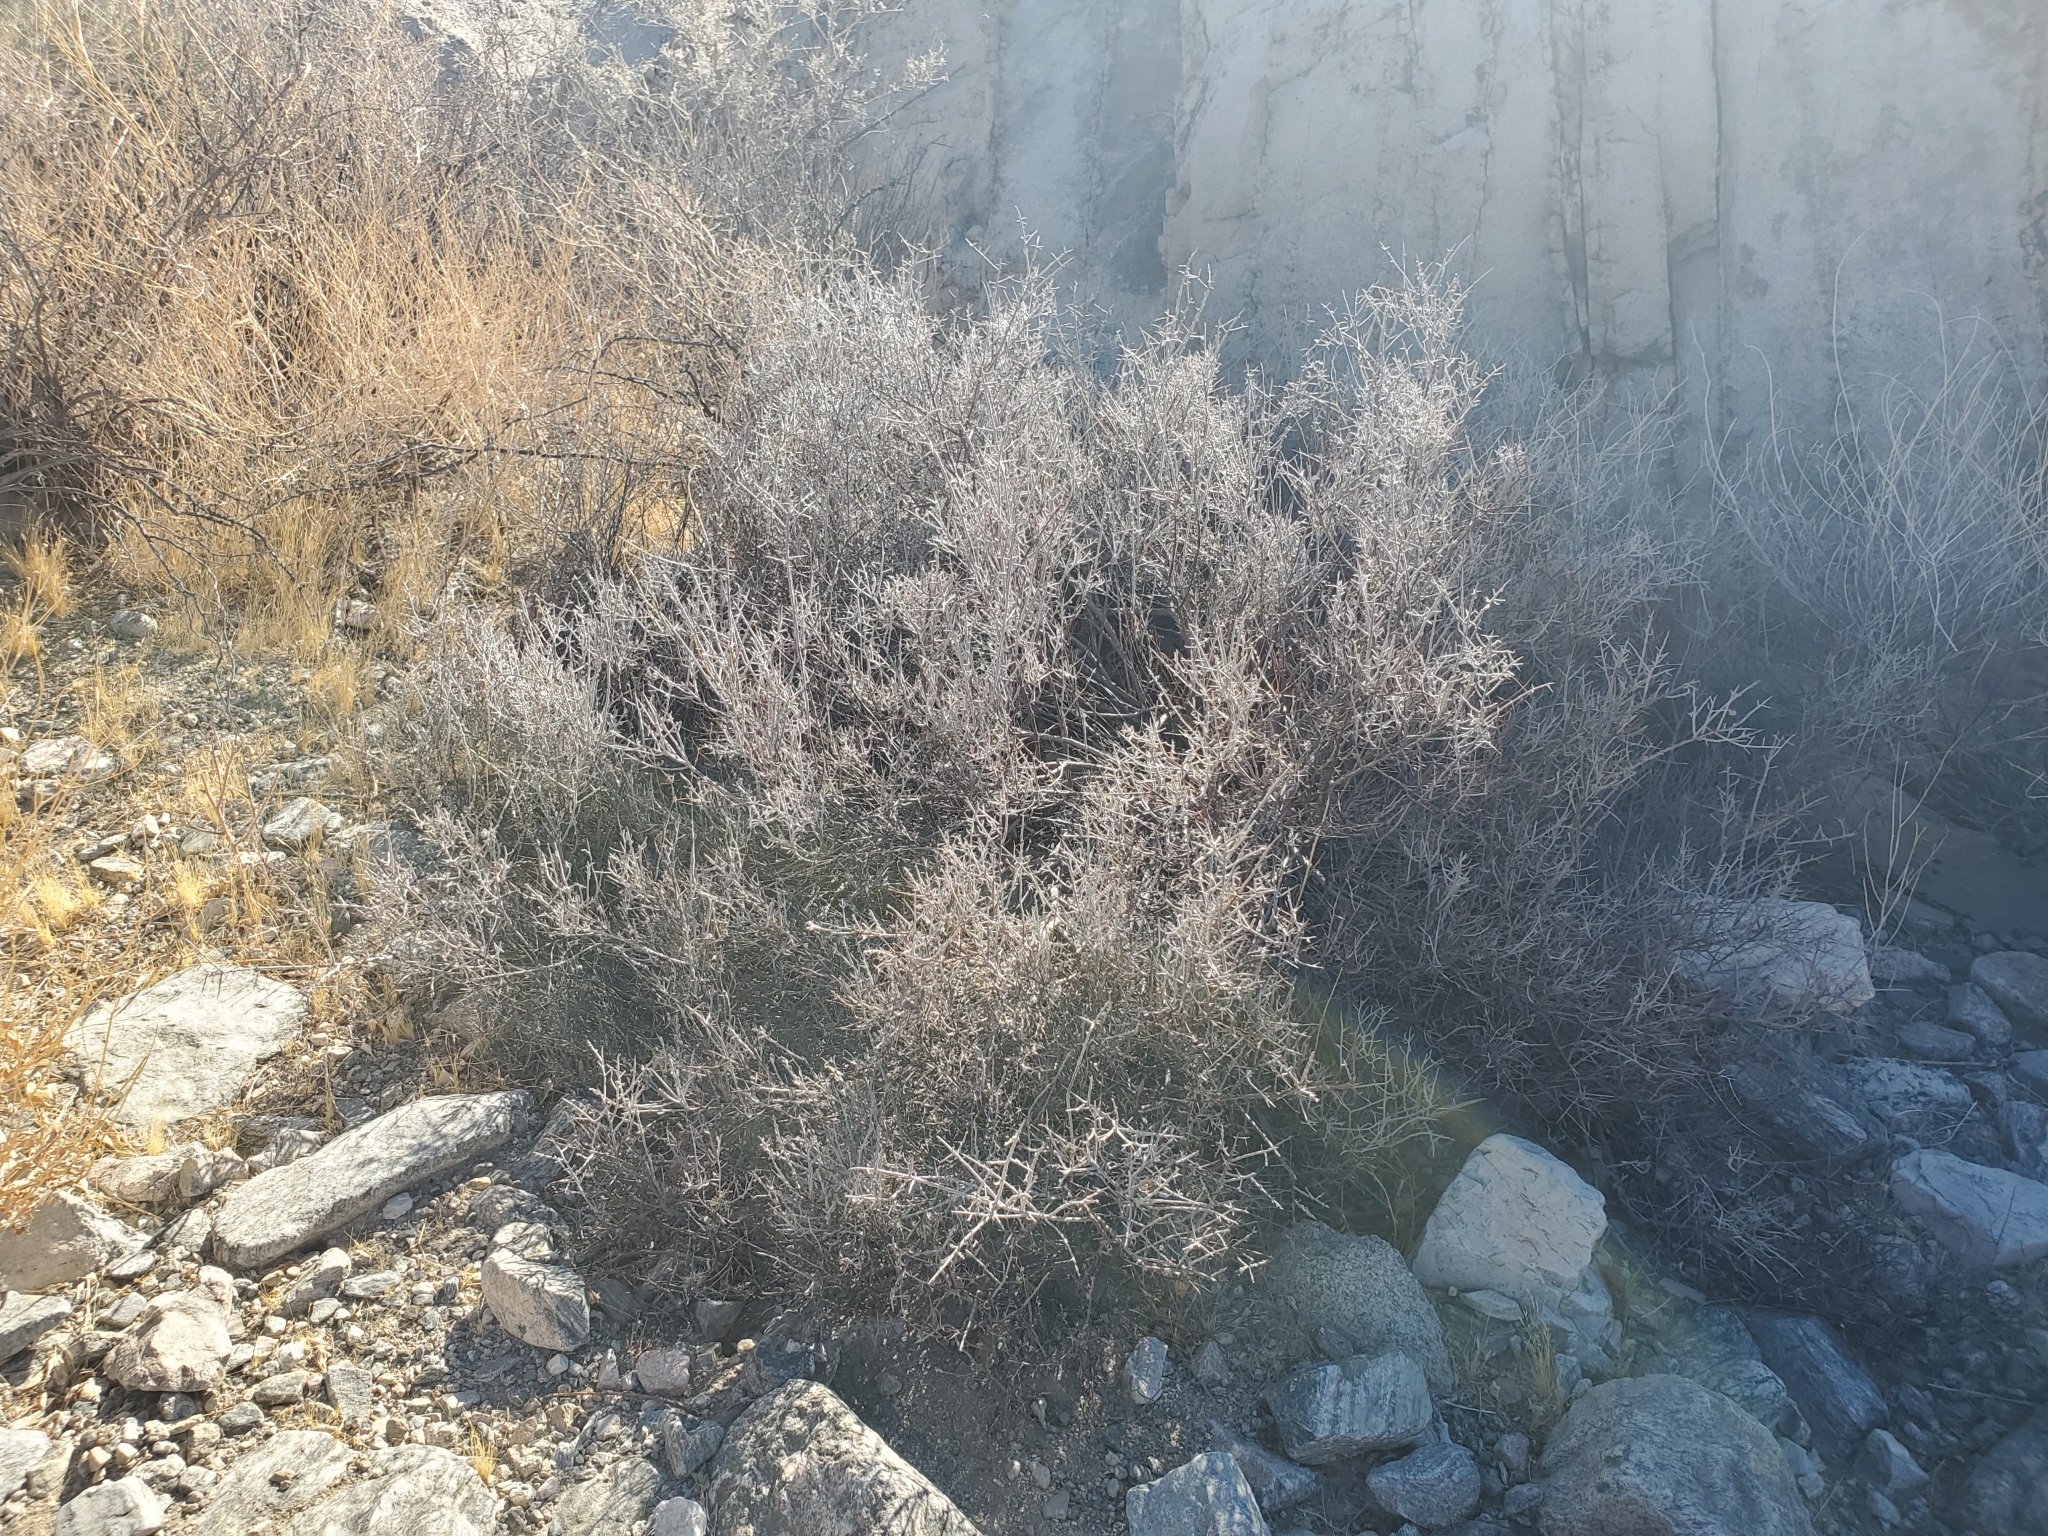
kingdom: Plantae
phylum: Tracheophyta
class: Magnoliopsida
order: Zygophyllales
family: Krameriaceae
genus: Krameria
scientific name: Krameria bicolor
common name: White ratany
